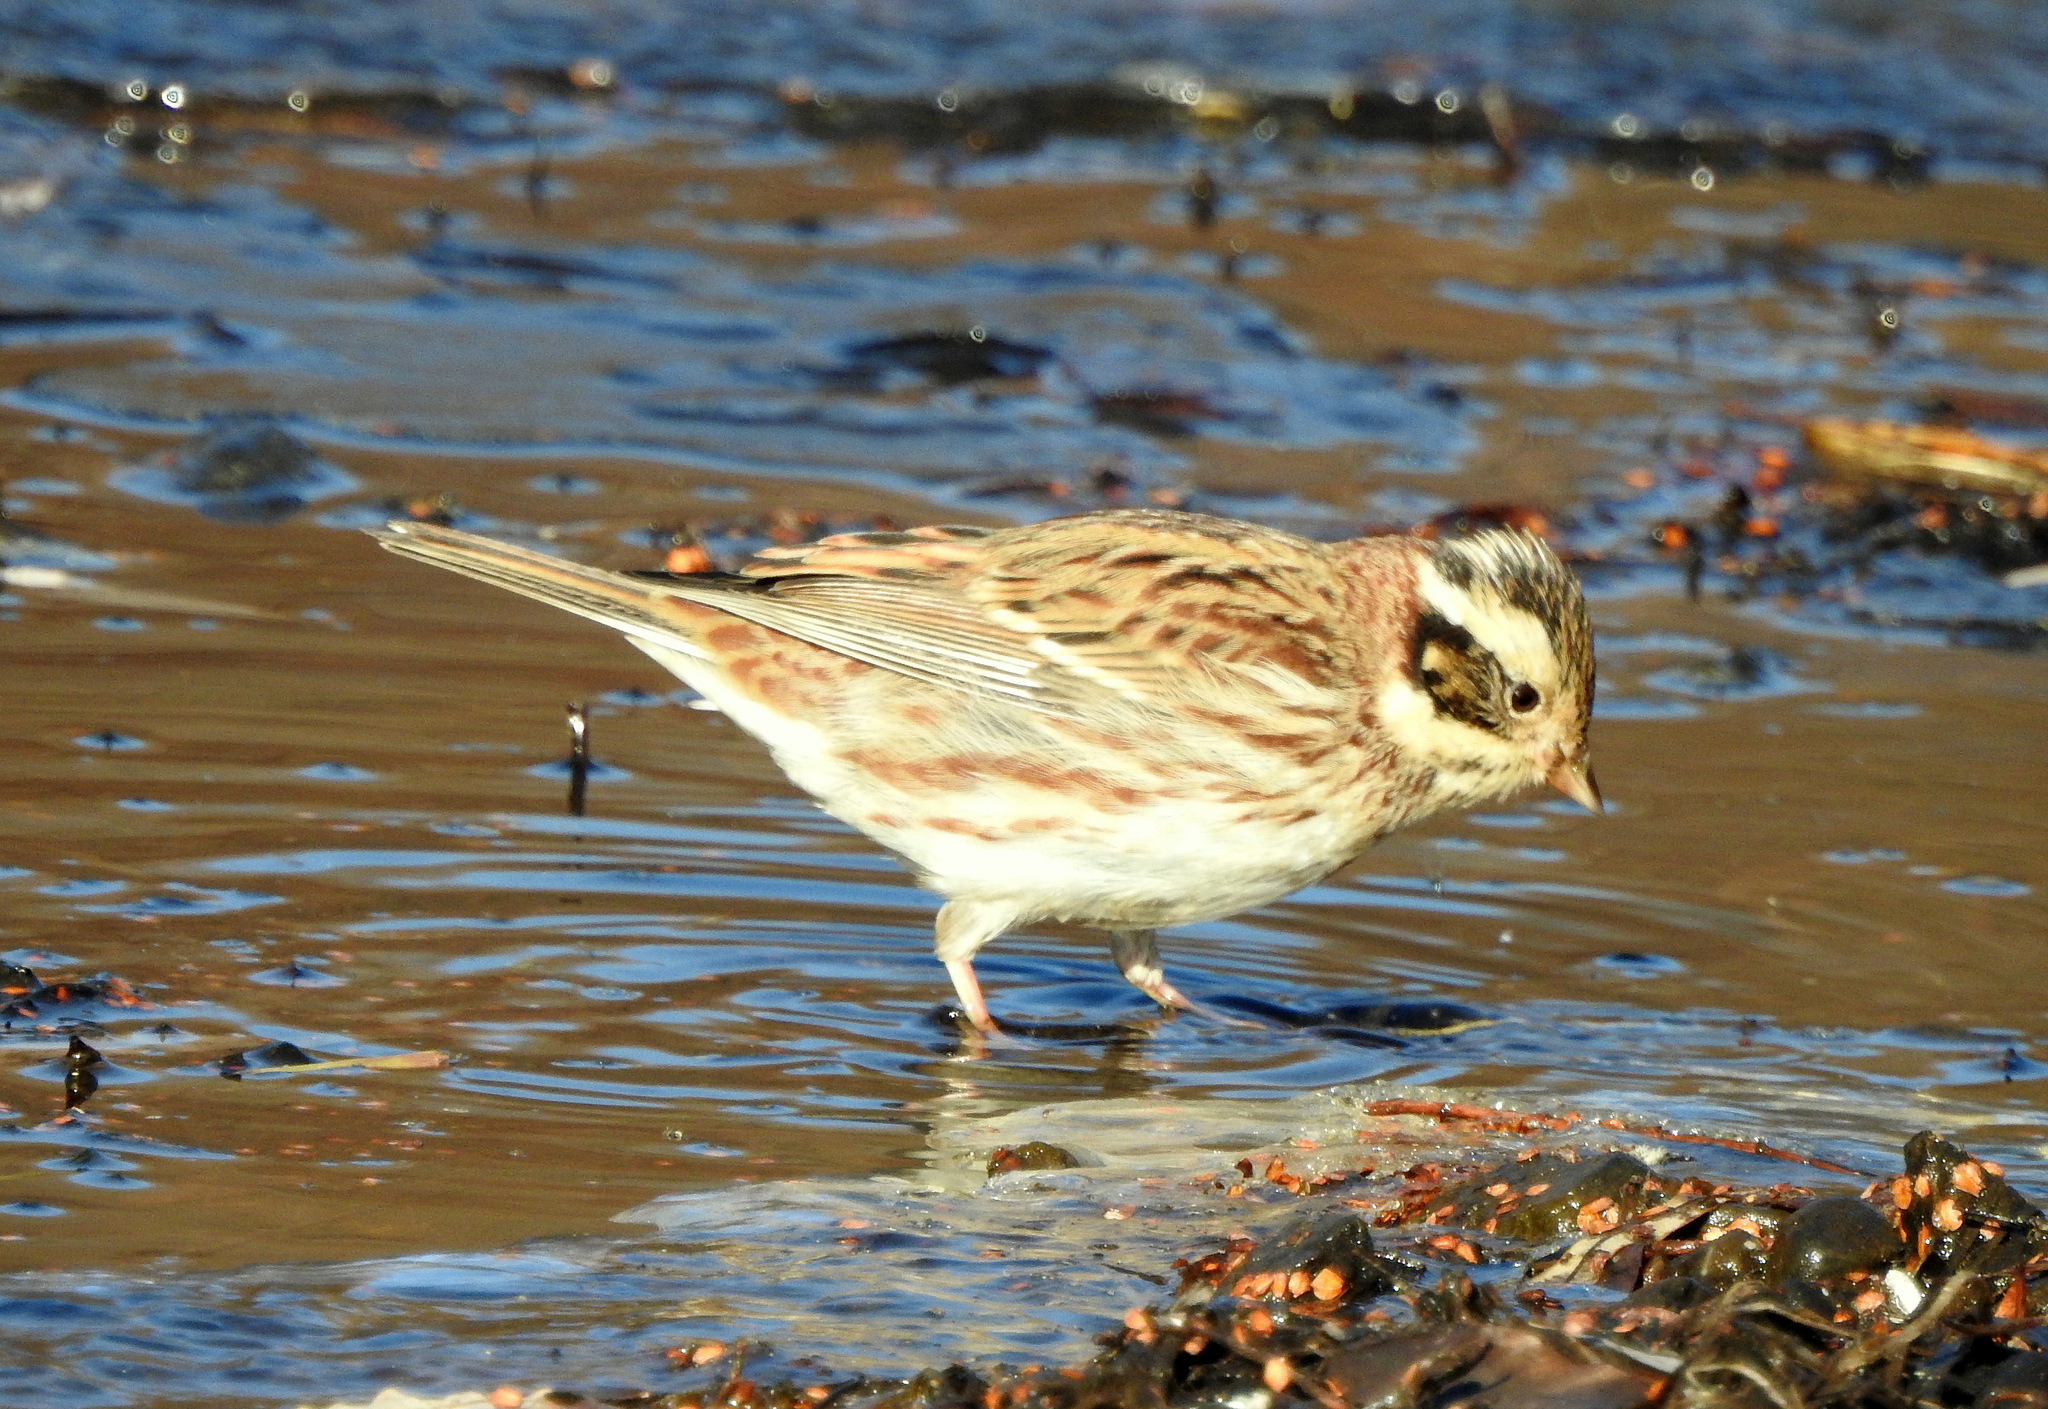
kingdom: Animalia
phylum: Chordata
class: Aves
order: Passeriformes
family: Emberizidae
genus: Emberiza
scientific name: Emberiza rustica
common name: Rustic bunting
